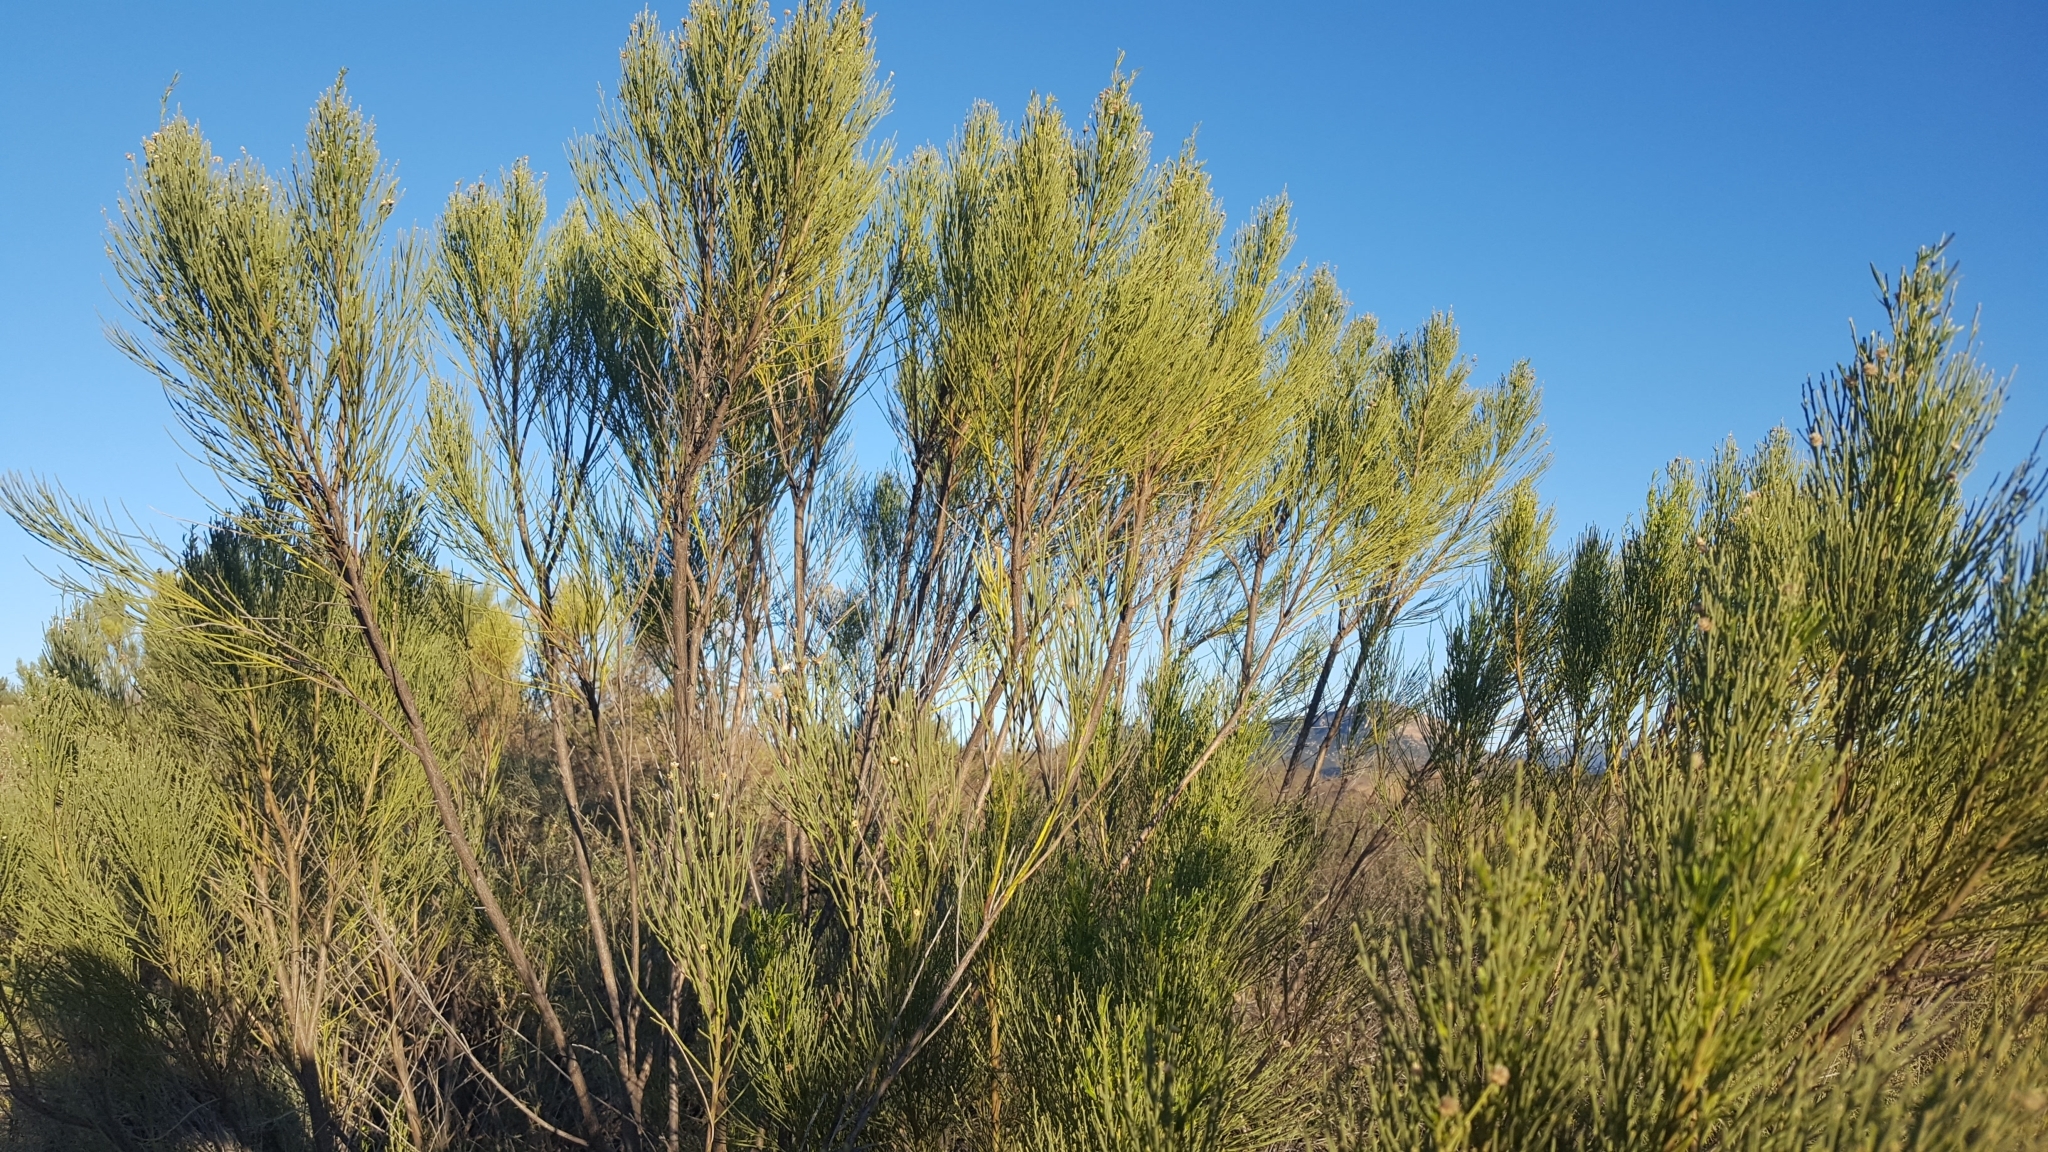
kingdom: Plantae
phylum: Tracheophyta
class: Magnoliopsida
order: Asterales
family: Asteraceae
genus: Baccharis
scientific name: Baccharis sarothroides
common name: Desert-broom
